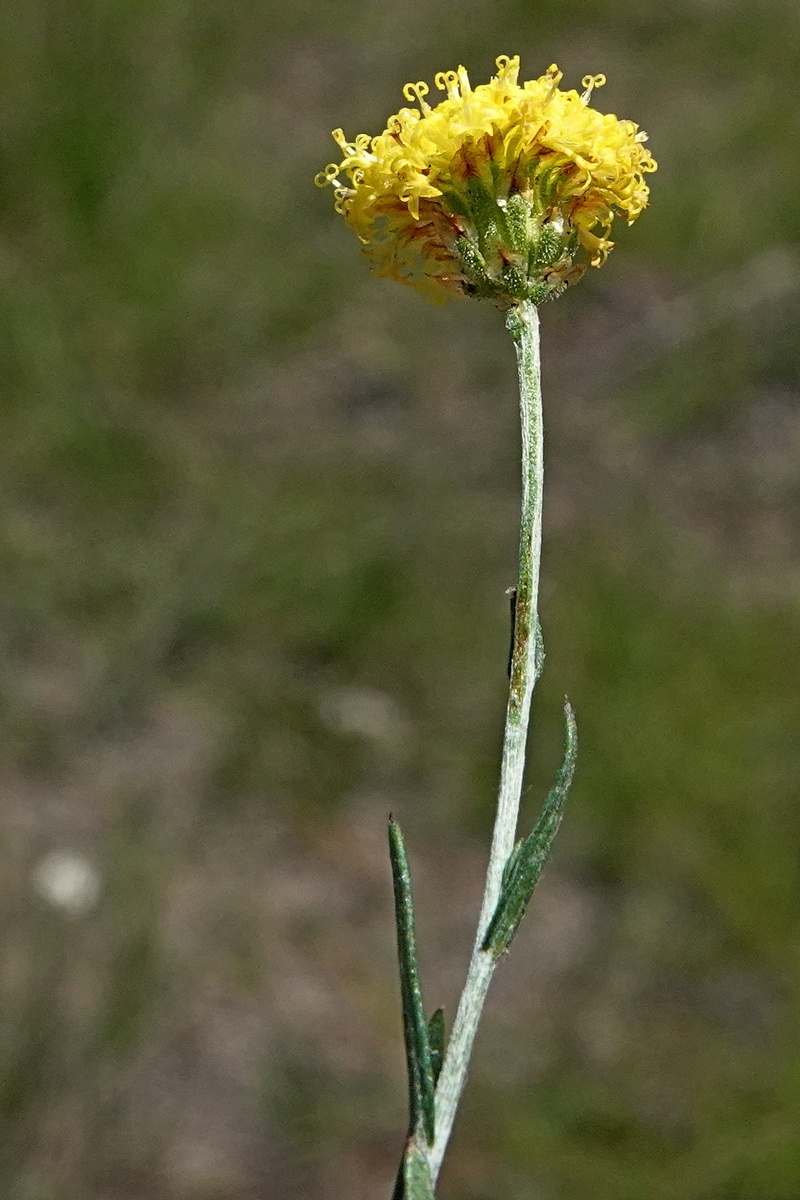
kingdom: Plantae
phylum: Tracheophyta
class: Magnoliopsida
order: Asterales
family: Asteraceae
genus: Leptorhynchos
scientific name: Leptorhynchos nitidulus
